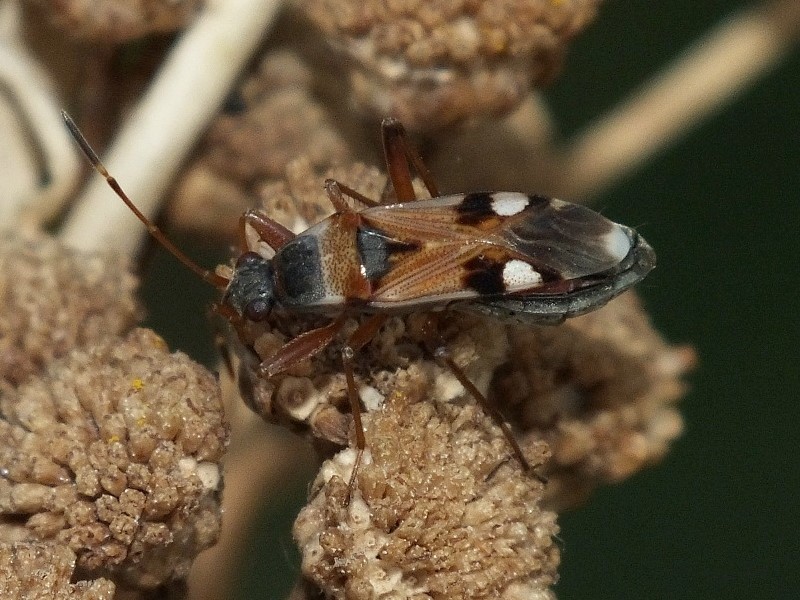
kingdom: Animalia
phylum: Arthropoda
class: Insecta
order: Hemiptera
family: Rhyparochromidae
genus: Beosus
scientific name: Beosus quadripunctatus
